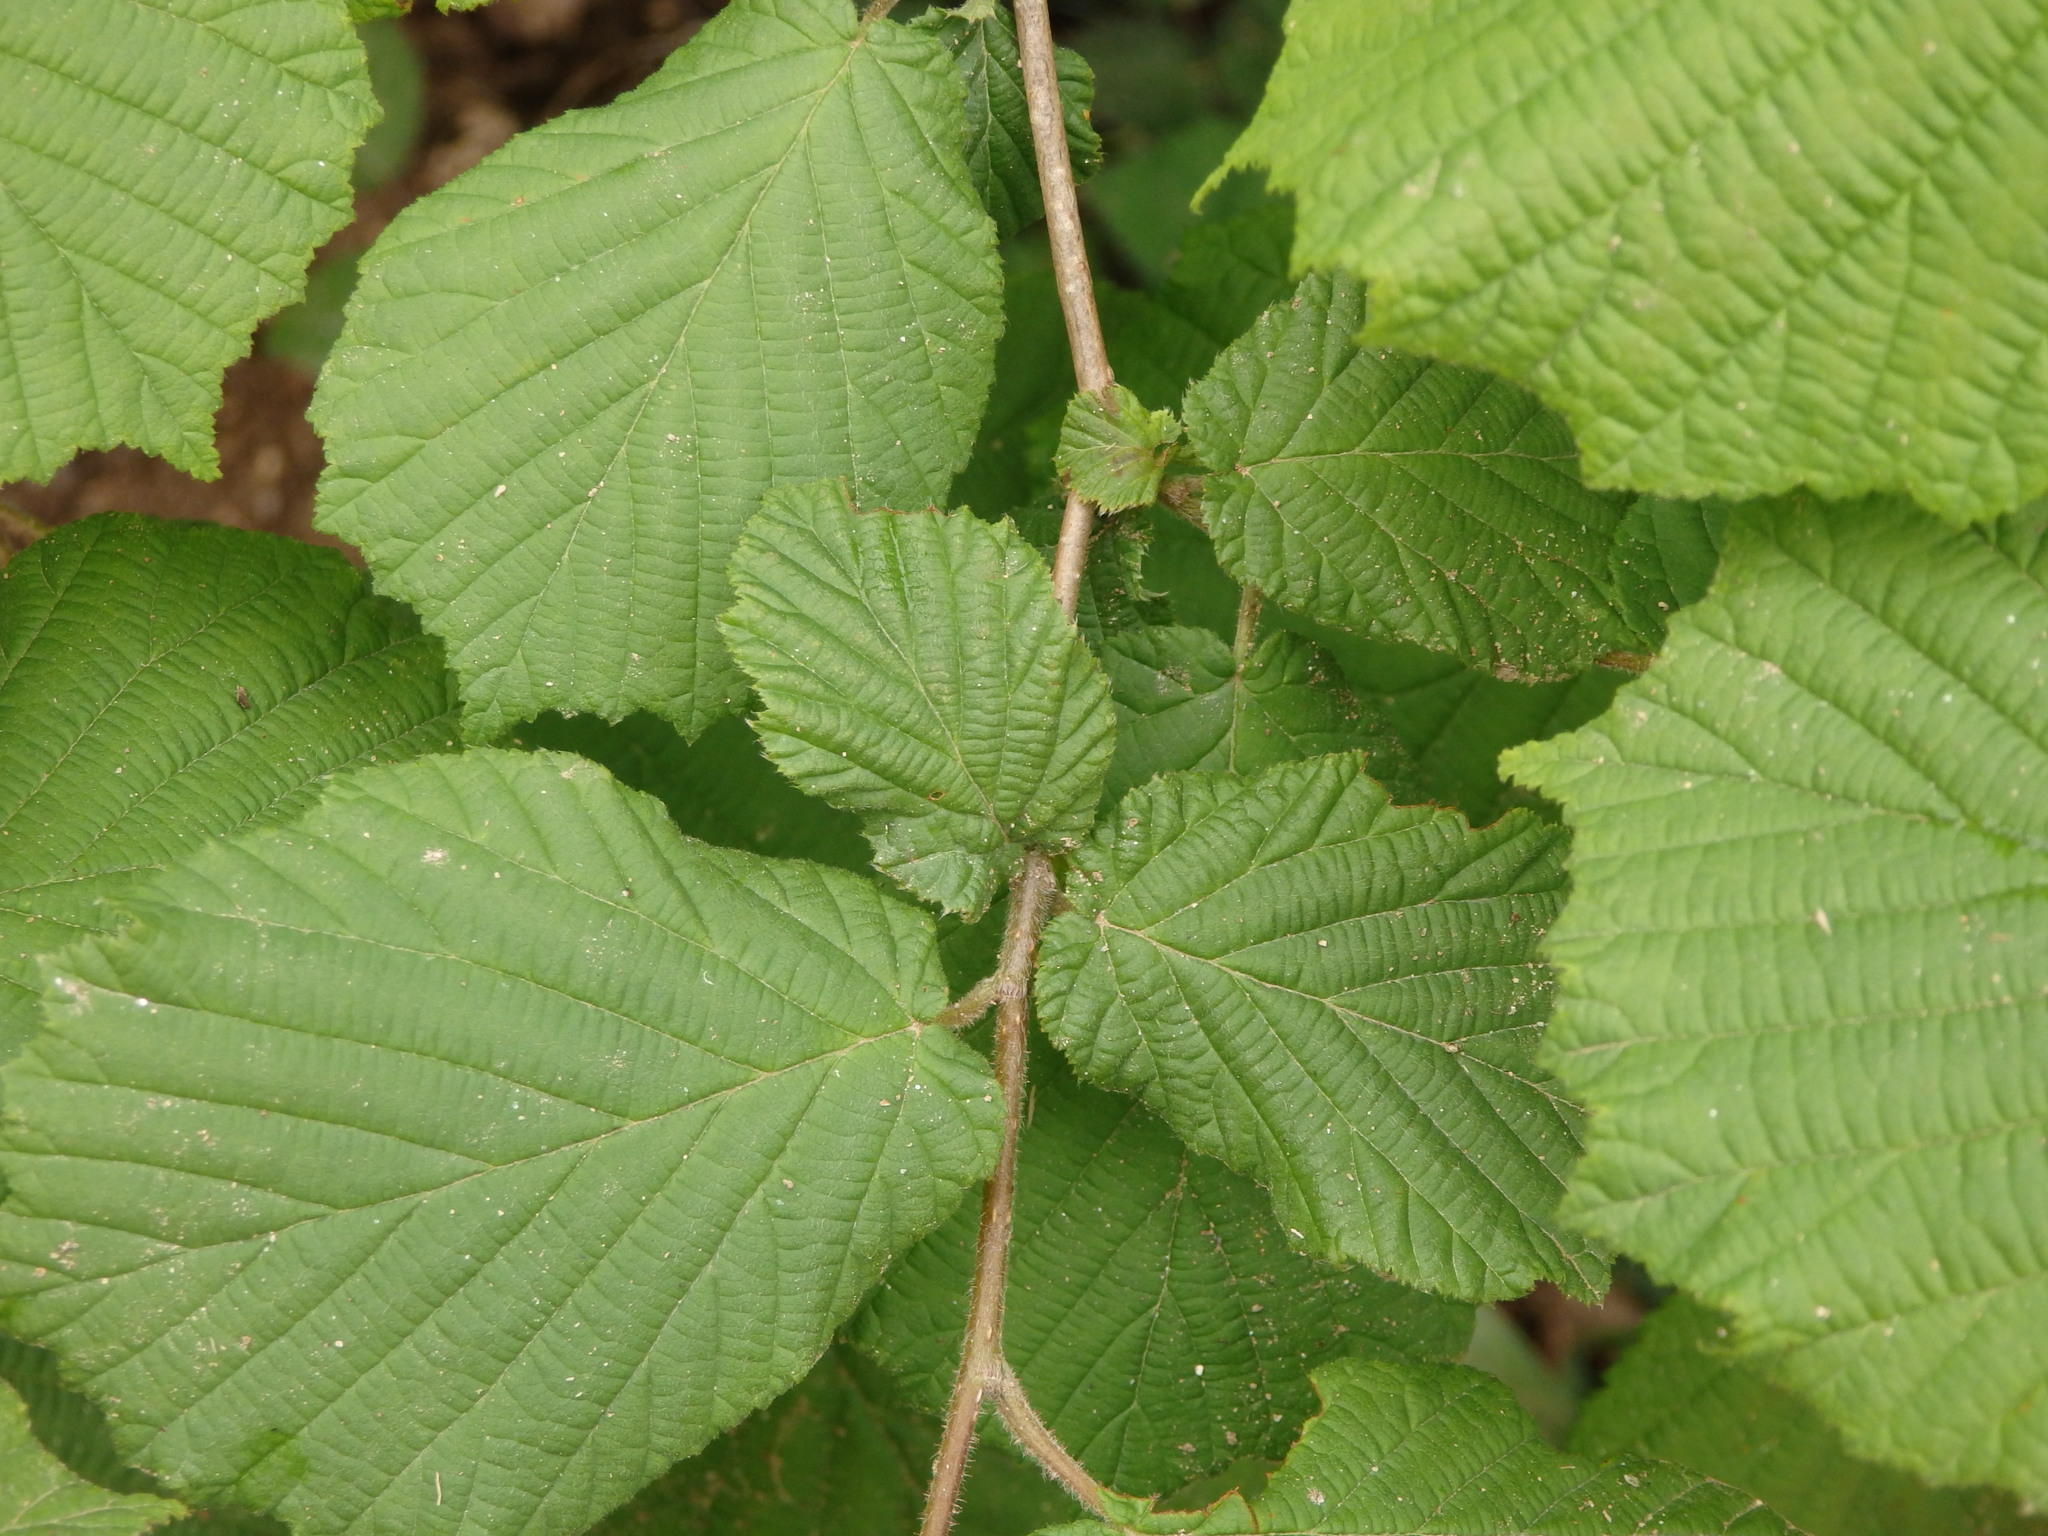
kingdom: Plantae
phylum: Tracheophyta
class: Magnoliopsida
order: Fagales
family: Betulaceae
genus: Corylus
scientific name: Corylus avellana
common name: European hazel
